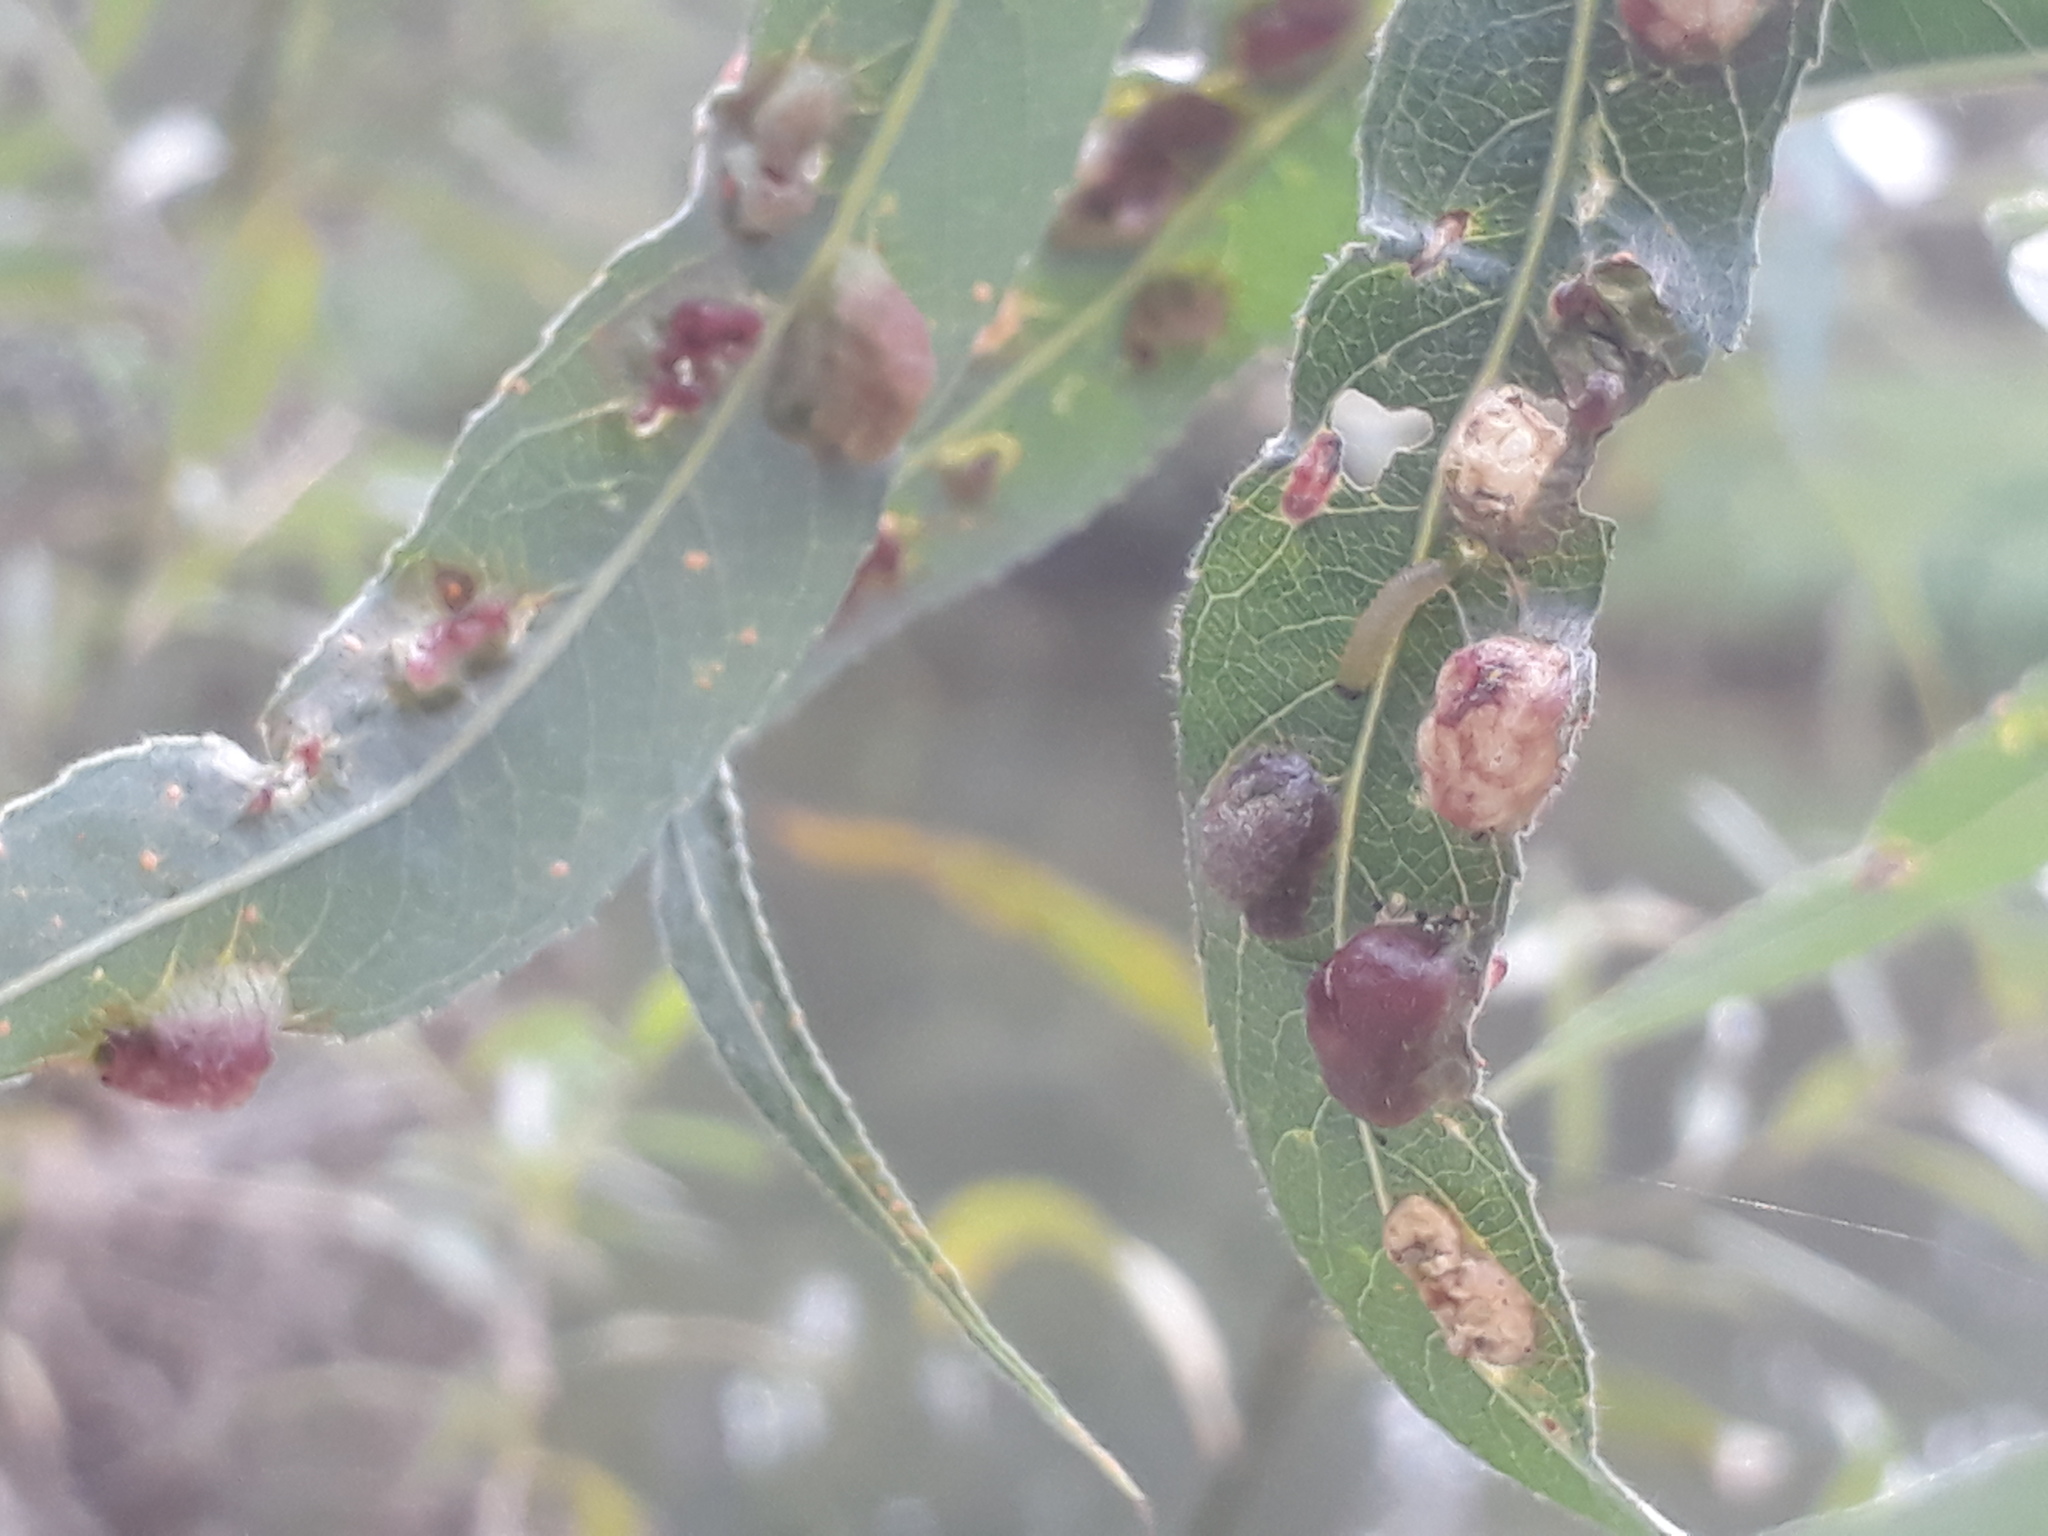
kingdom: Animalia
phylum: Arthropoda
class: Insecta
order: Hymenoptera
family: Tenthredinidae
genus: Pontania
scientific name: Pontania proxima
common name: Common sawfly
